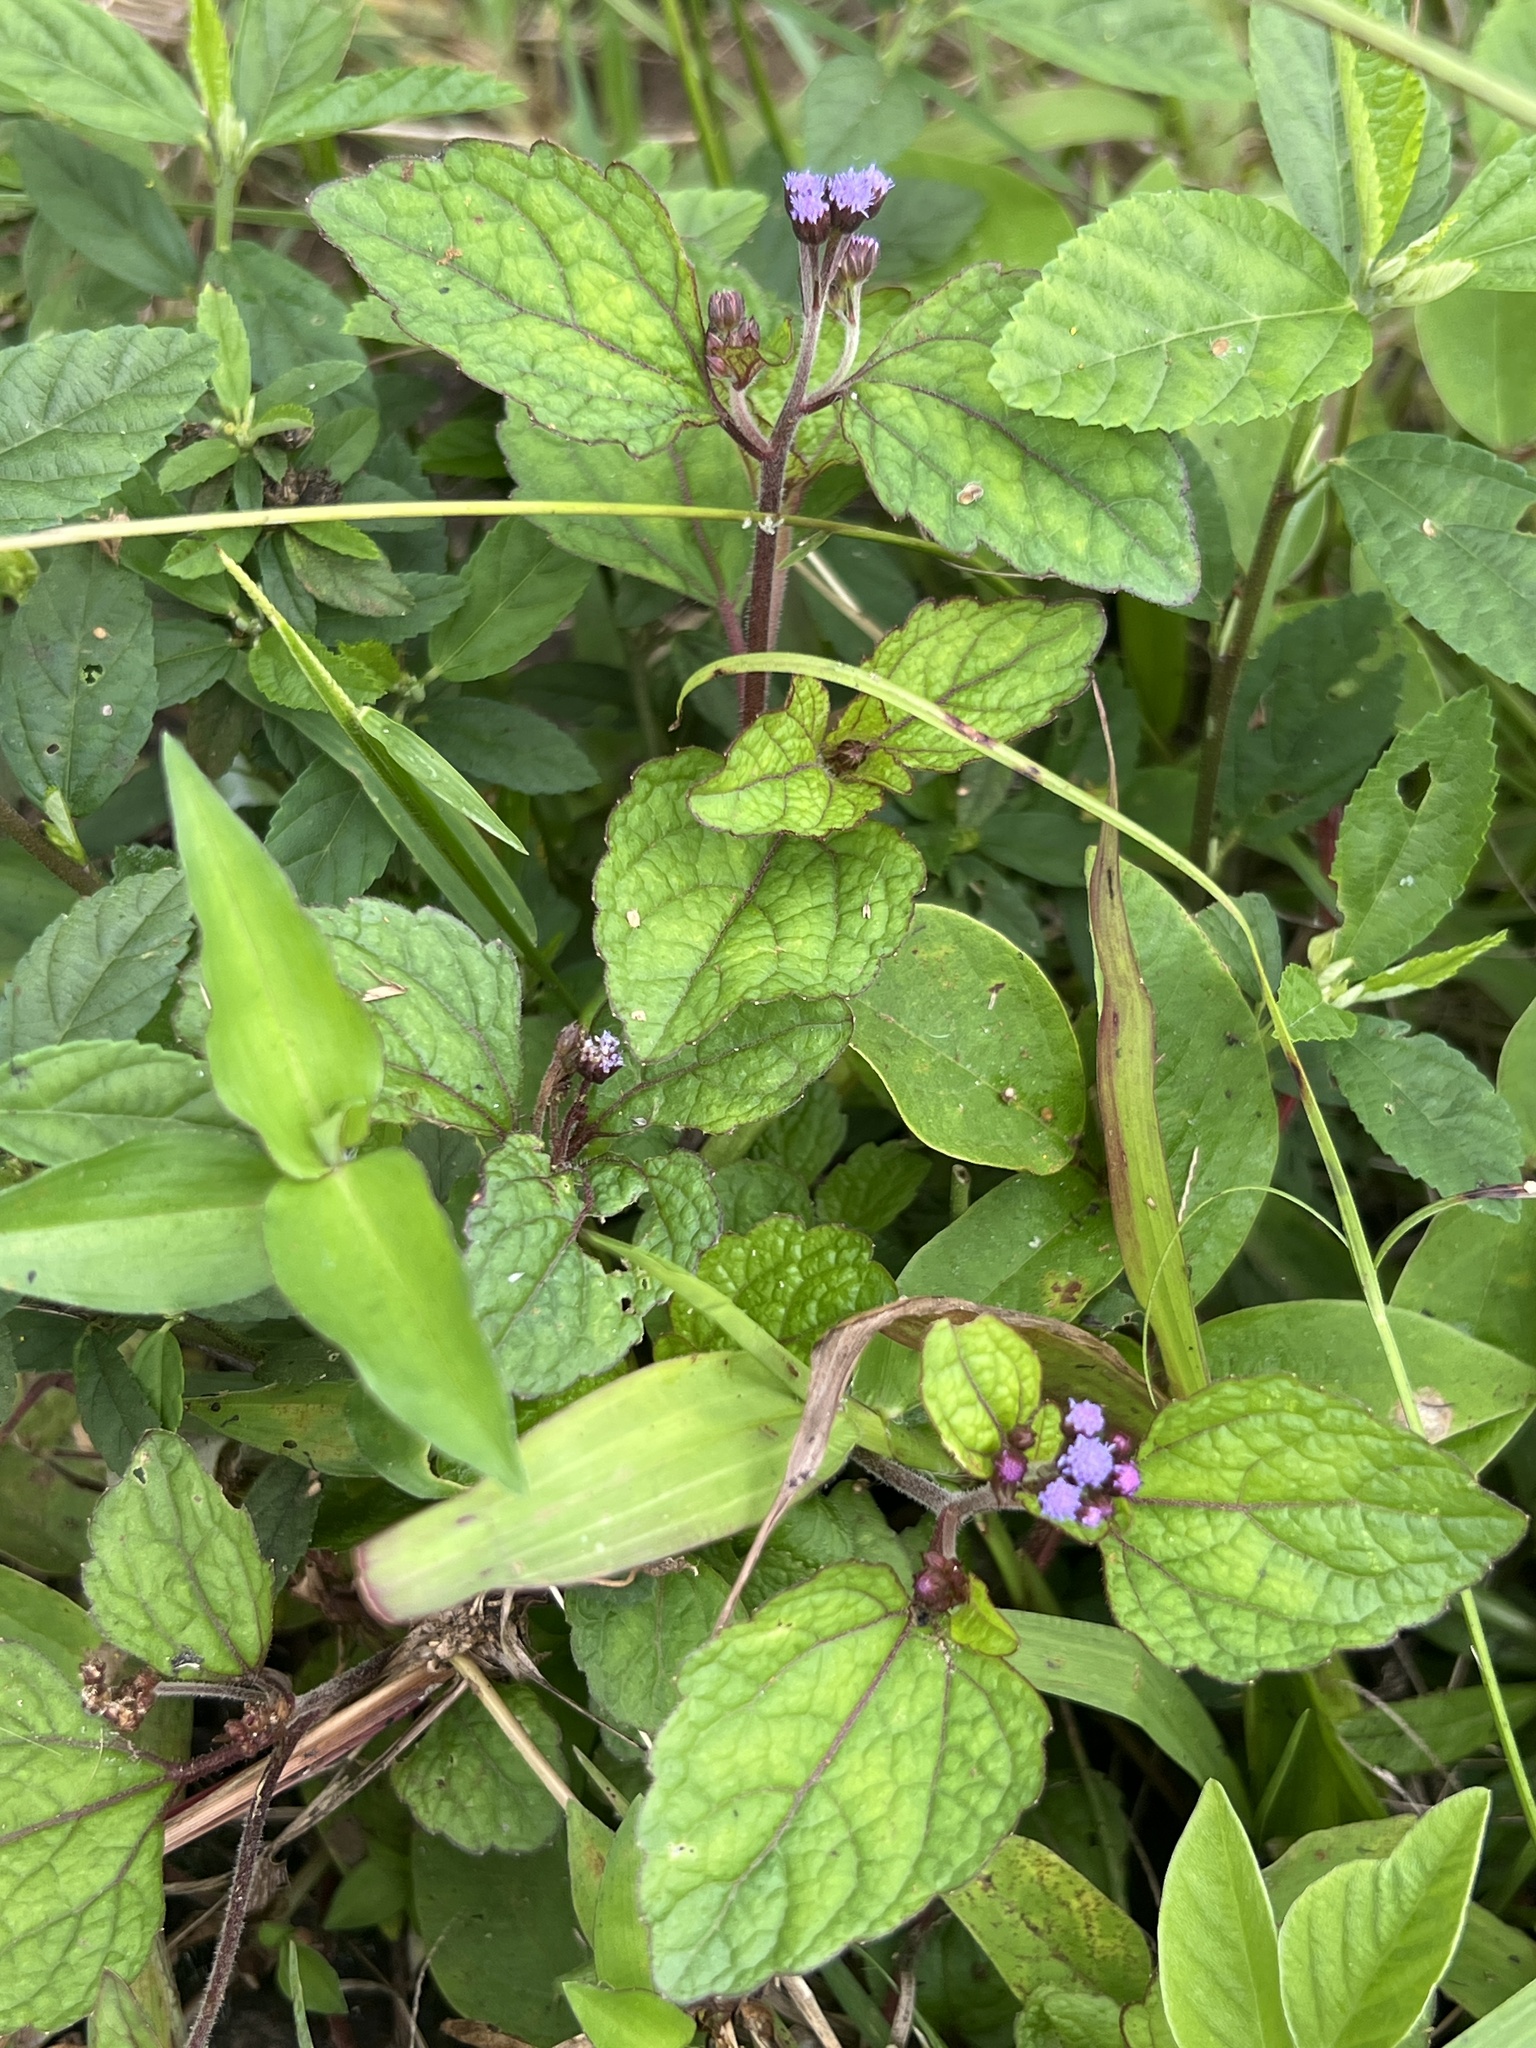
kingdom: Plantae
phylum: Tracheophyta
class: Magnoliopsida
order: Asterales
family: Asteraceae
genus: Ageratum
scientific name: Ageratum conyzoides
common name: Tropical whiteweed
